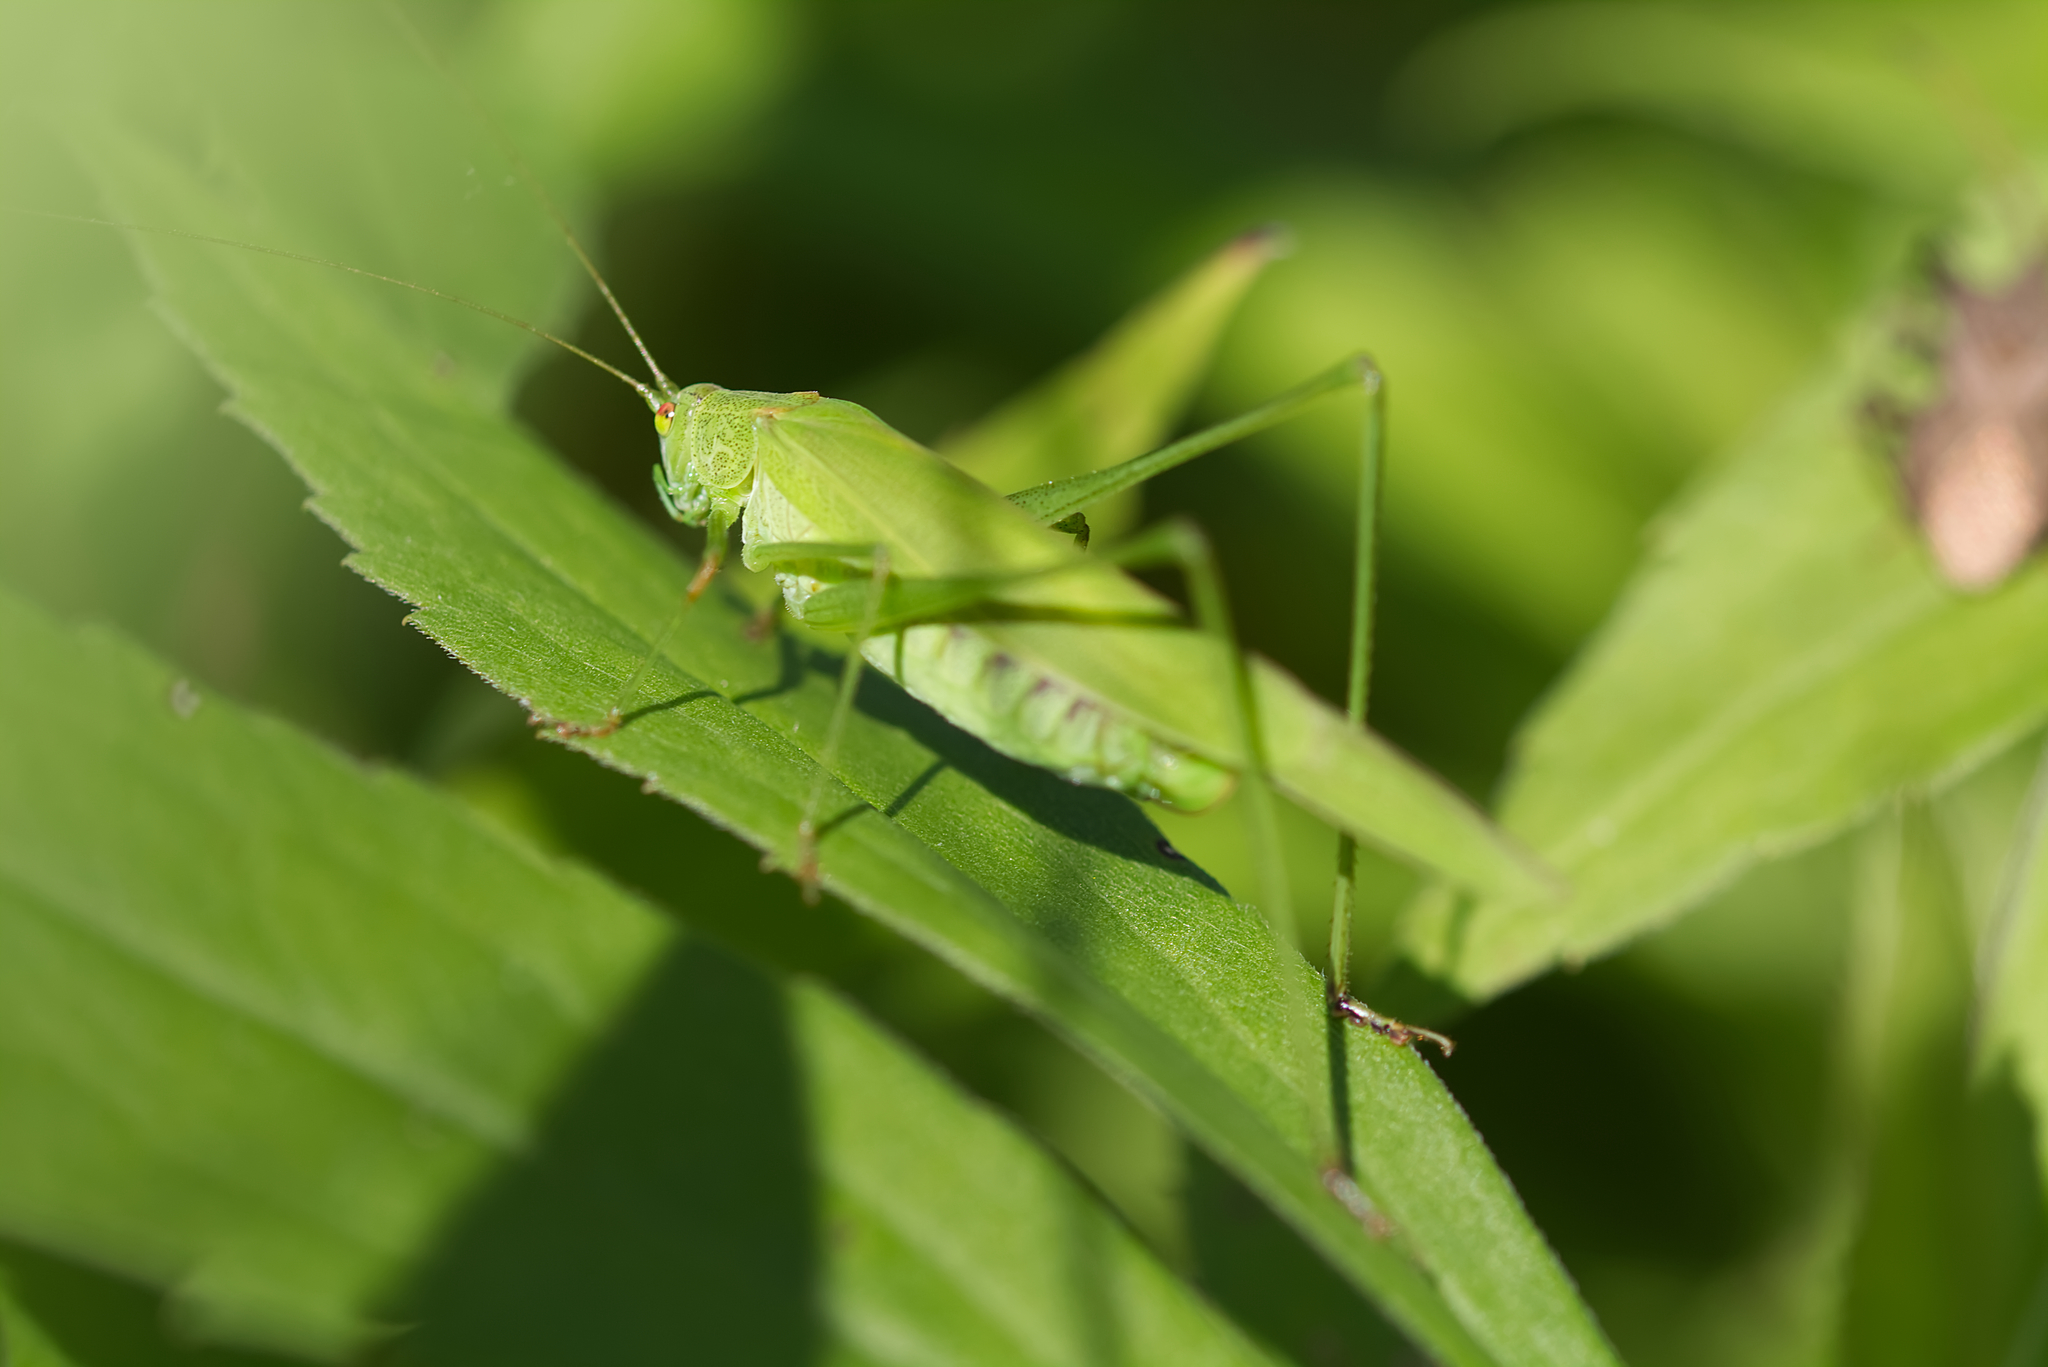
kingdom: Animalia
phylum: Arthropoda
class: Insecta
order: Orthoptera
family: Tettigoniidae
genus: Phaneroptera
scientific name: Phaneroptera falcata
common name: Sickle-bearing bush-cricket
